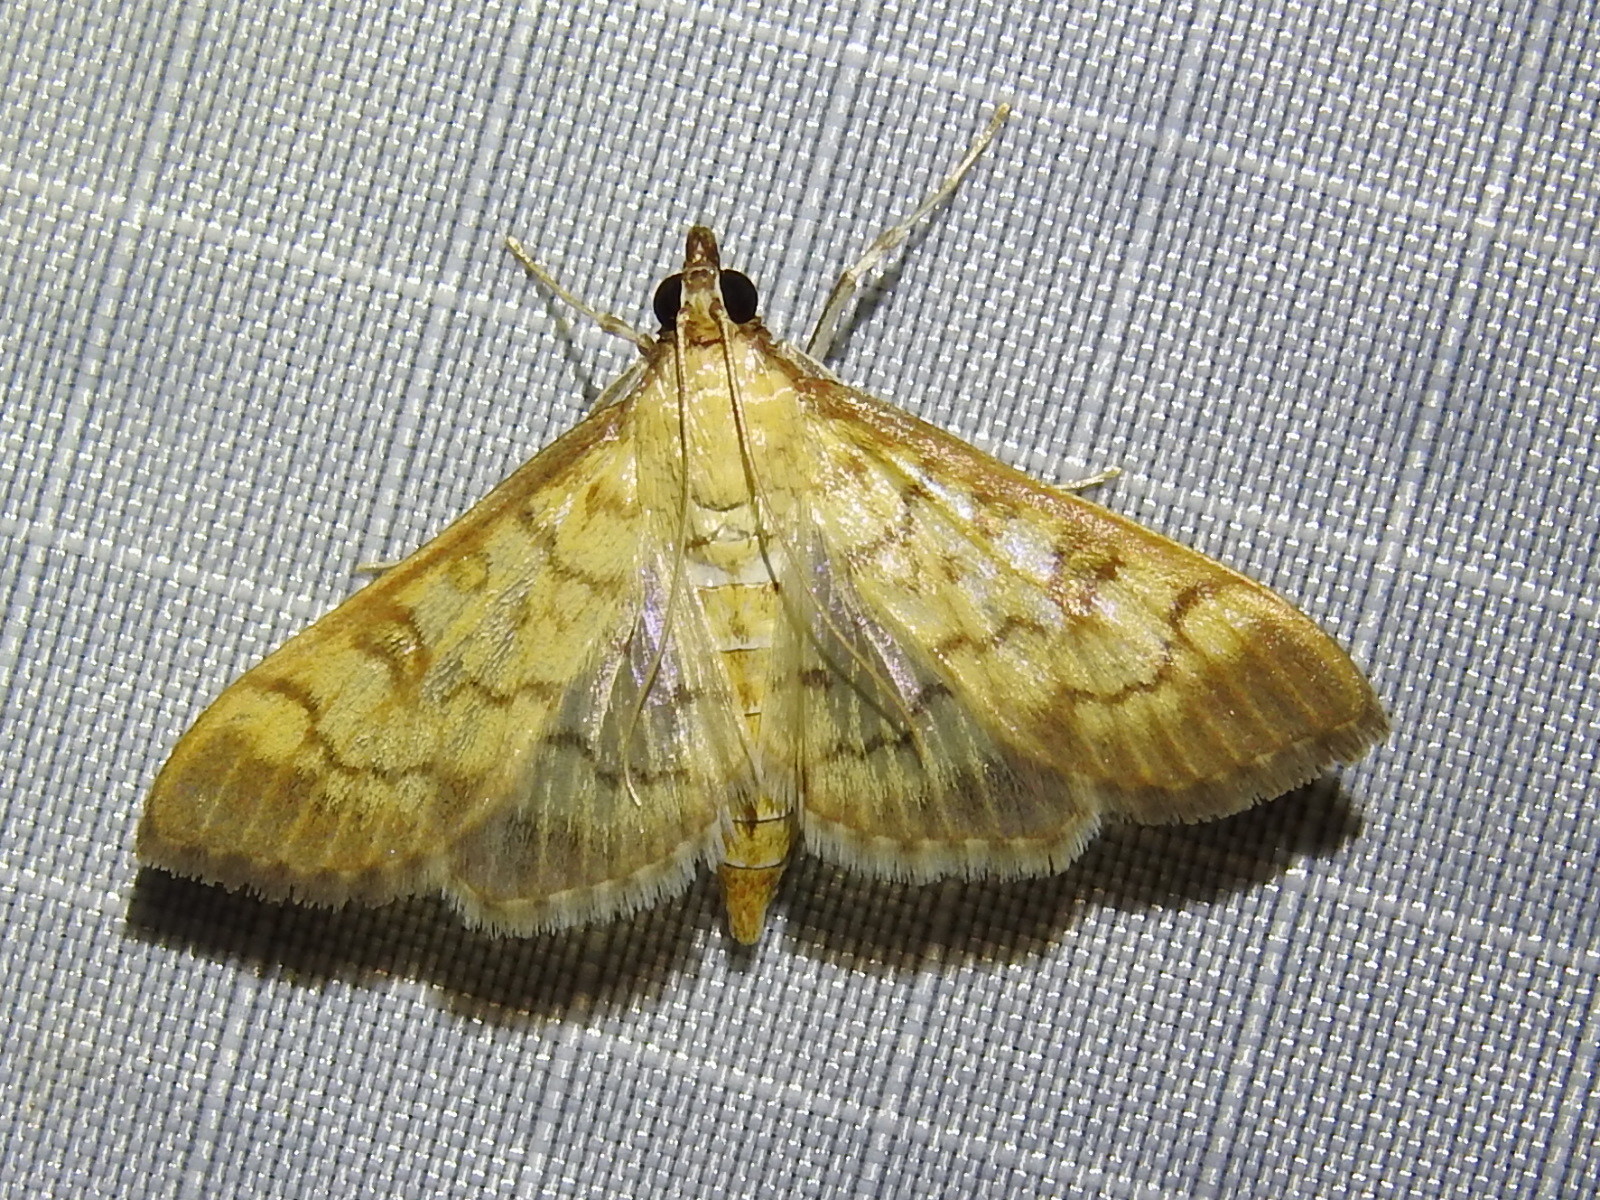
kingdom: Animalia
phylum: Arthropoda
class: Insecta
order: Lepidoptera
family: Crambidae
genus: Mimorista
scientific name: Mimorista subcostalis
